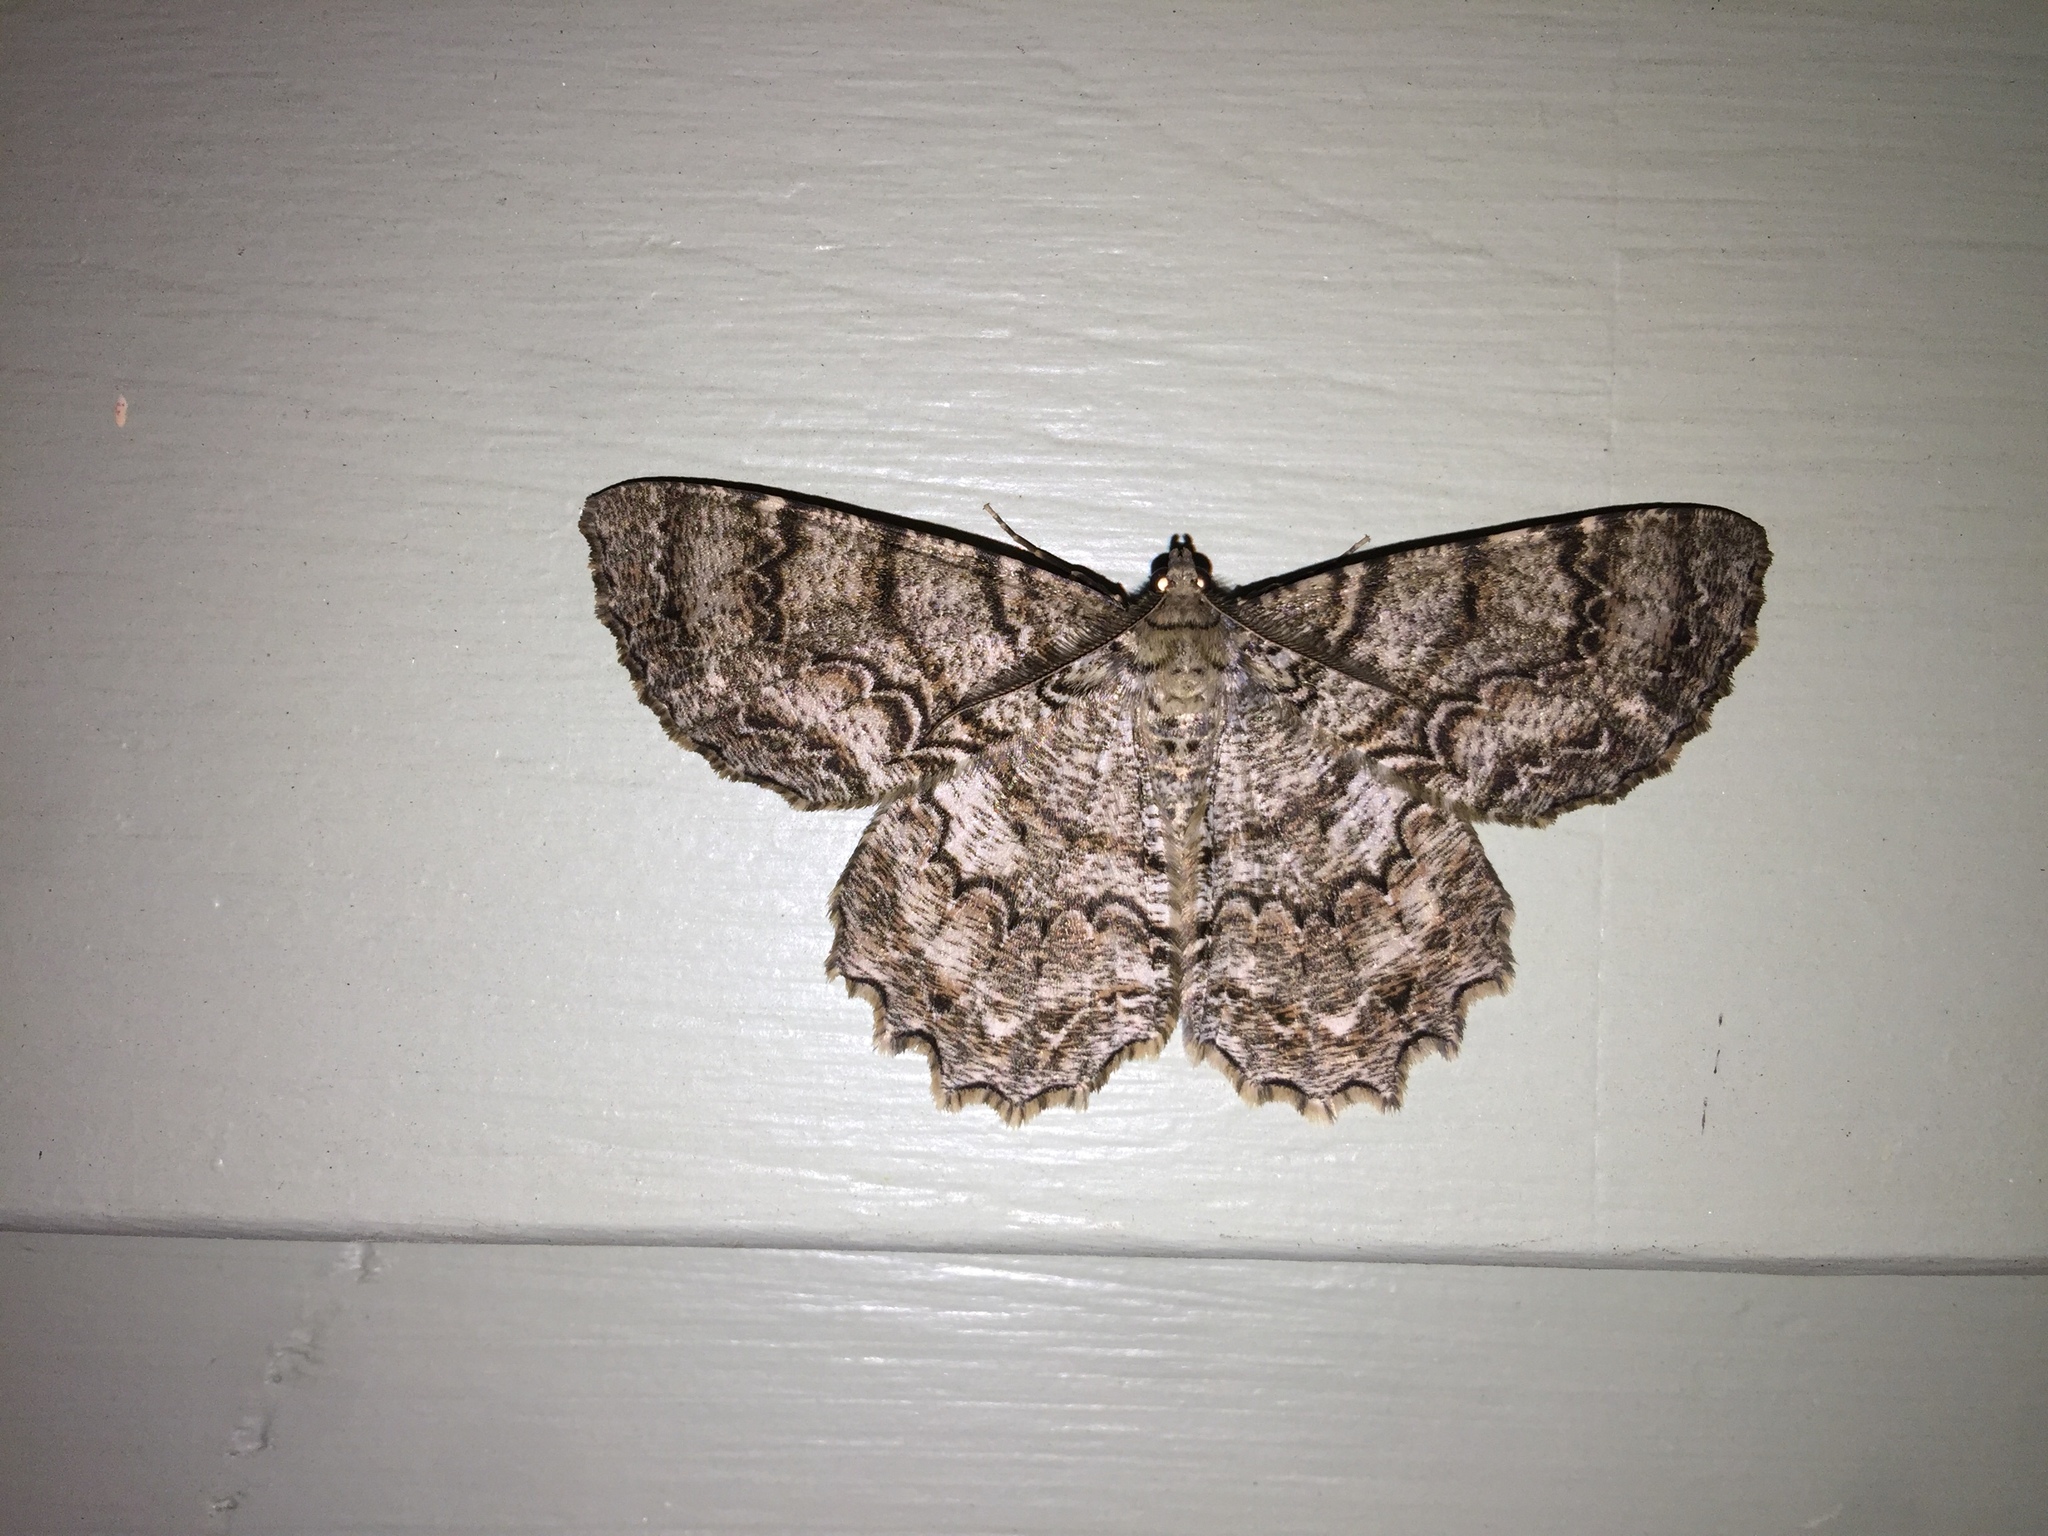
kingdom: Animalia
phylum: Arthropoda
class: Insecta
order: Lepidoptera
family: Geometridae
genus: Epimecis
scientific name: Epimecis hortaria
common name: Tulip-tree beauty
